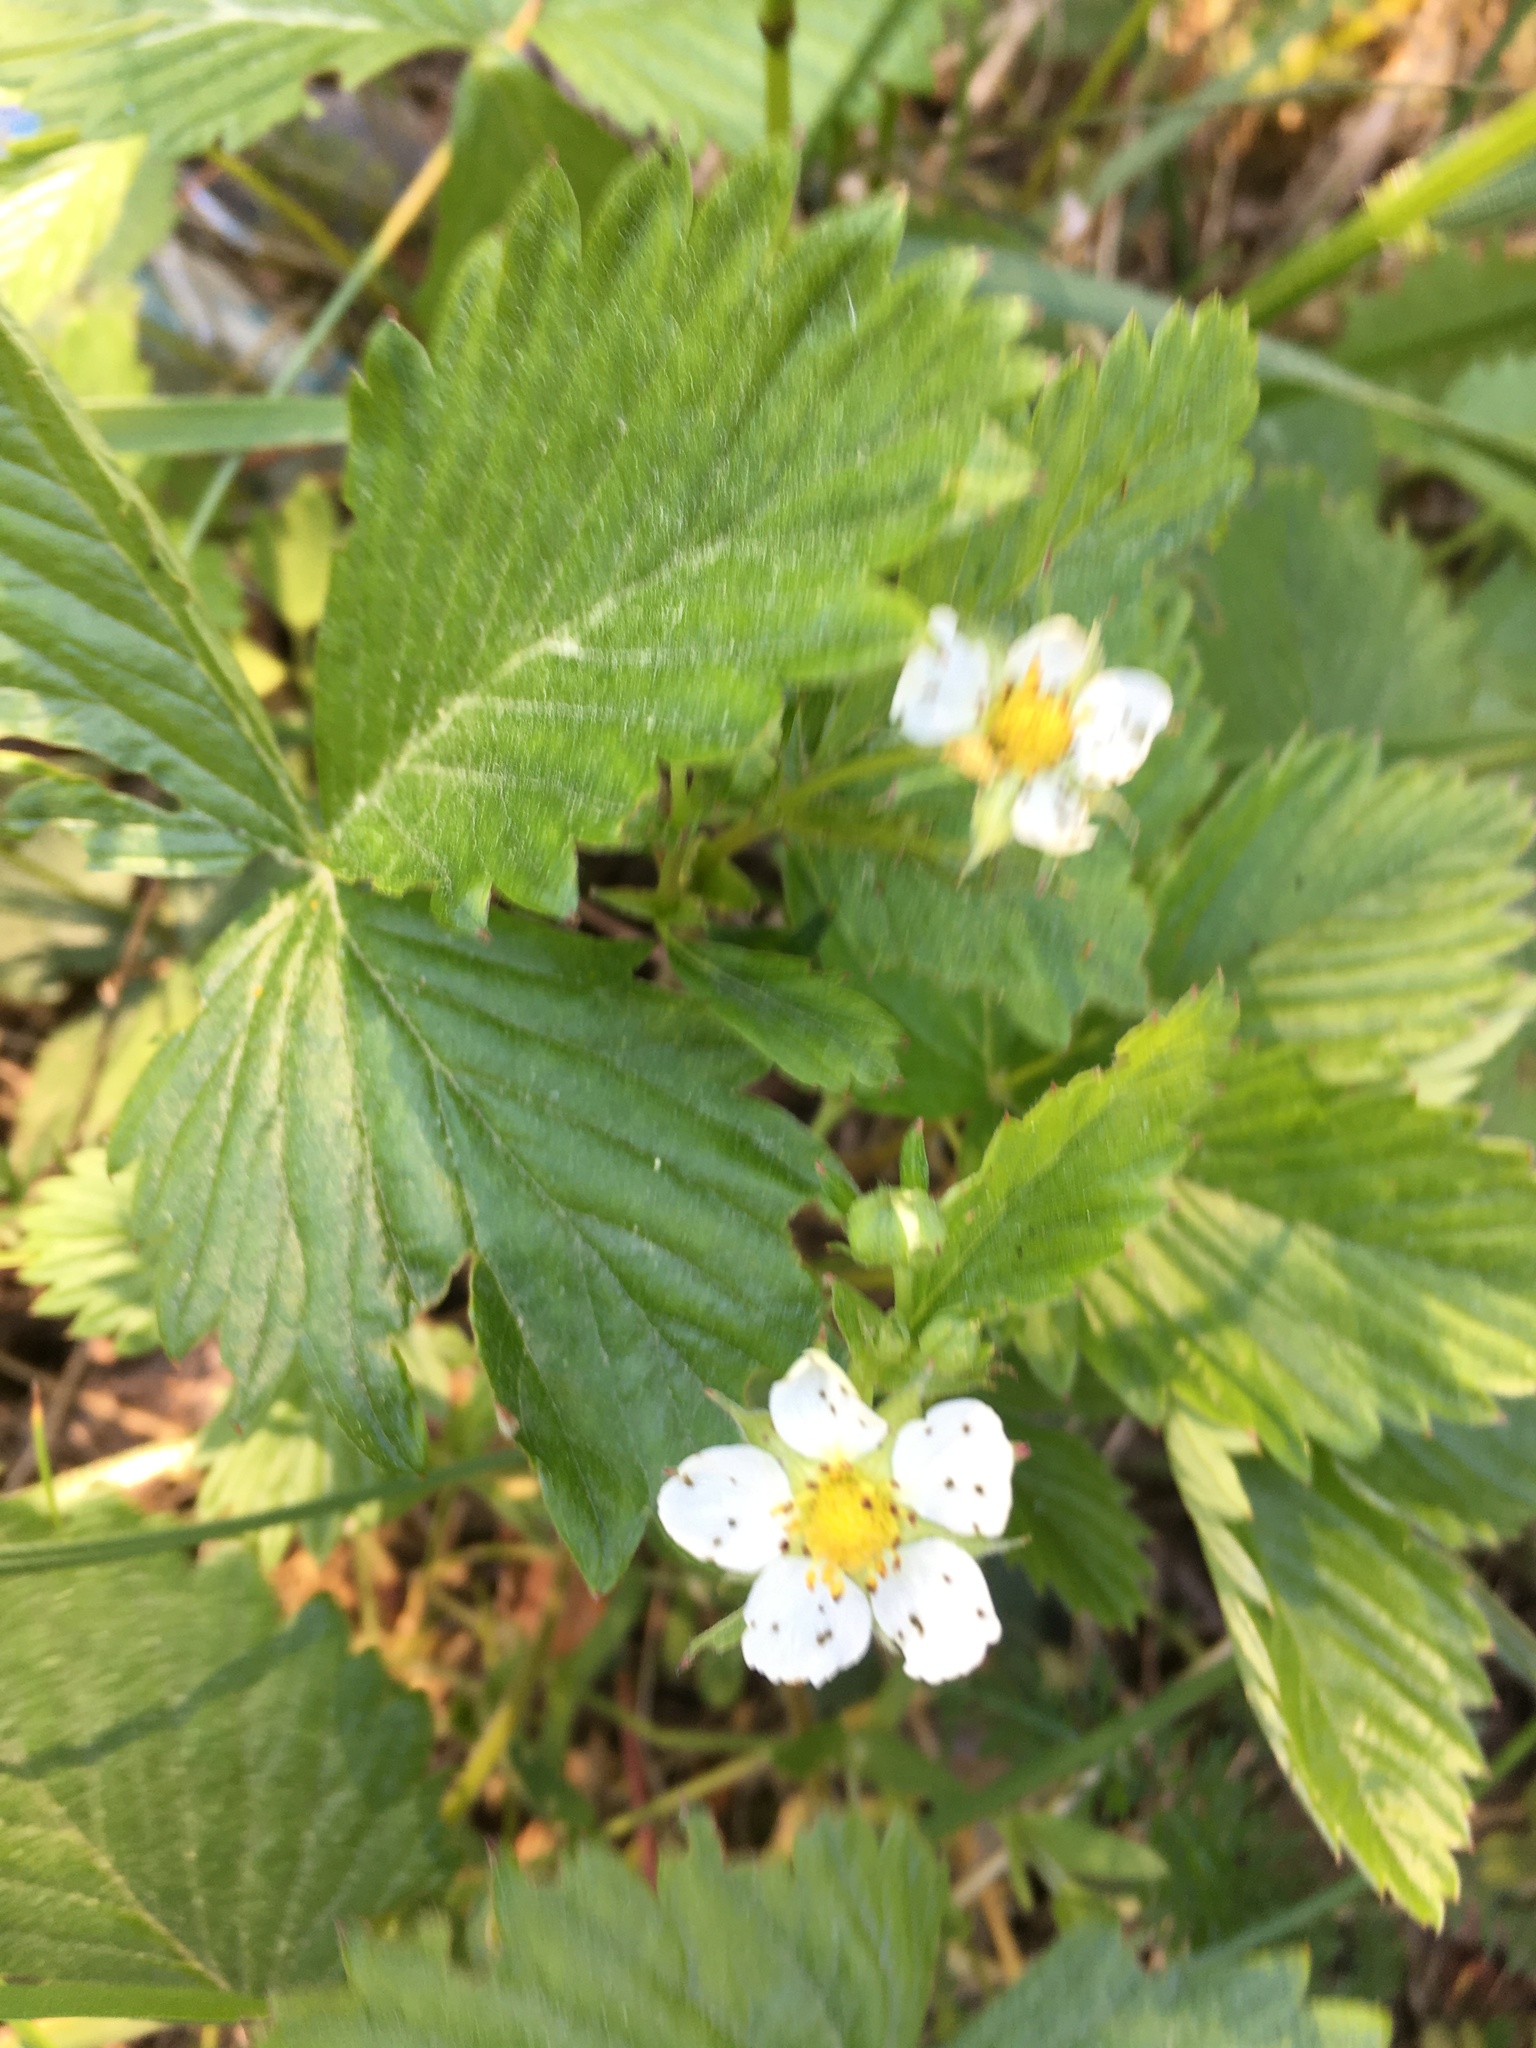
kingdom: Plantae
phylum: Tracheophyta
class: Magnoliopsida
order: Rosales
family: Rosaceae
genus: Fragaria
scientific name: Fragaria vesca
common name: Wild strawberry
